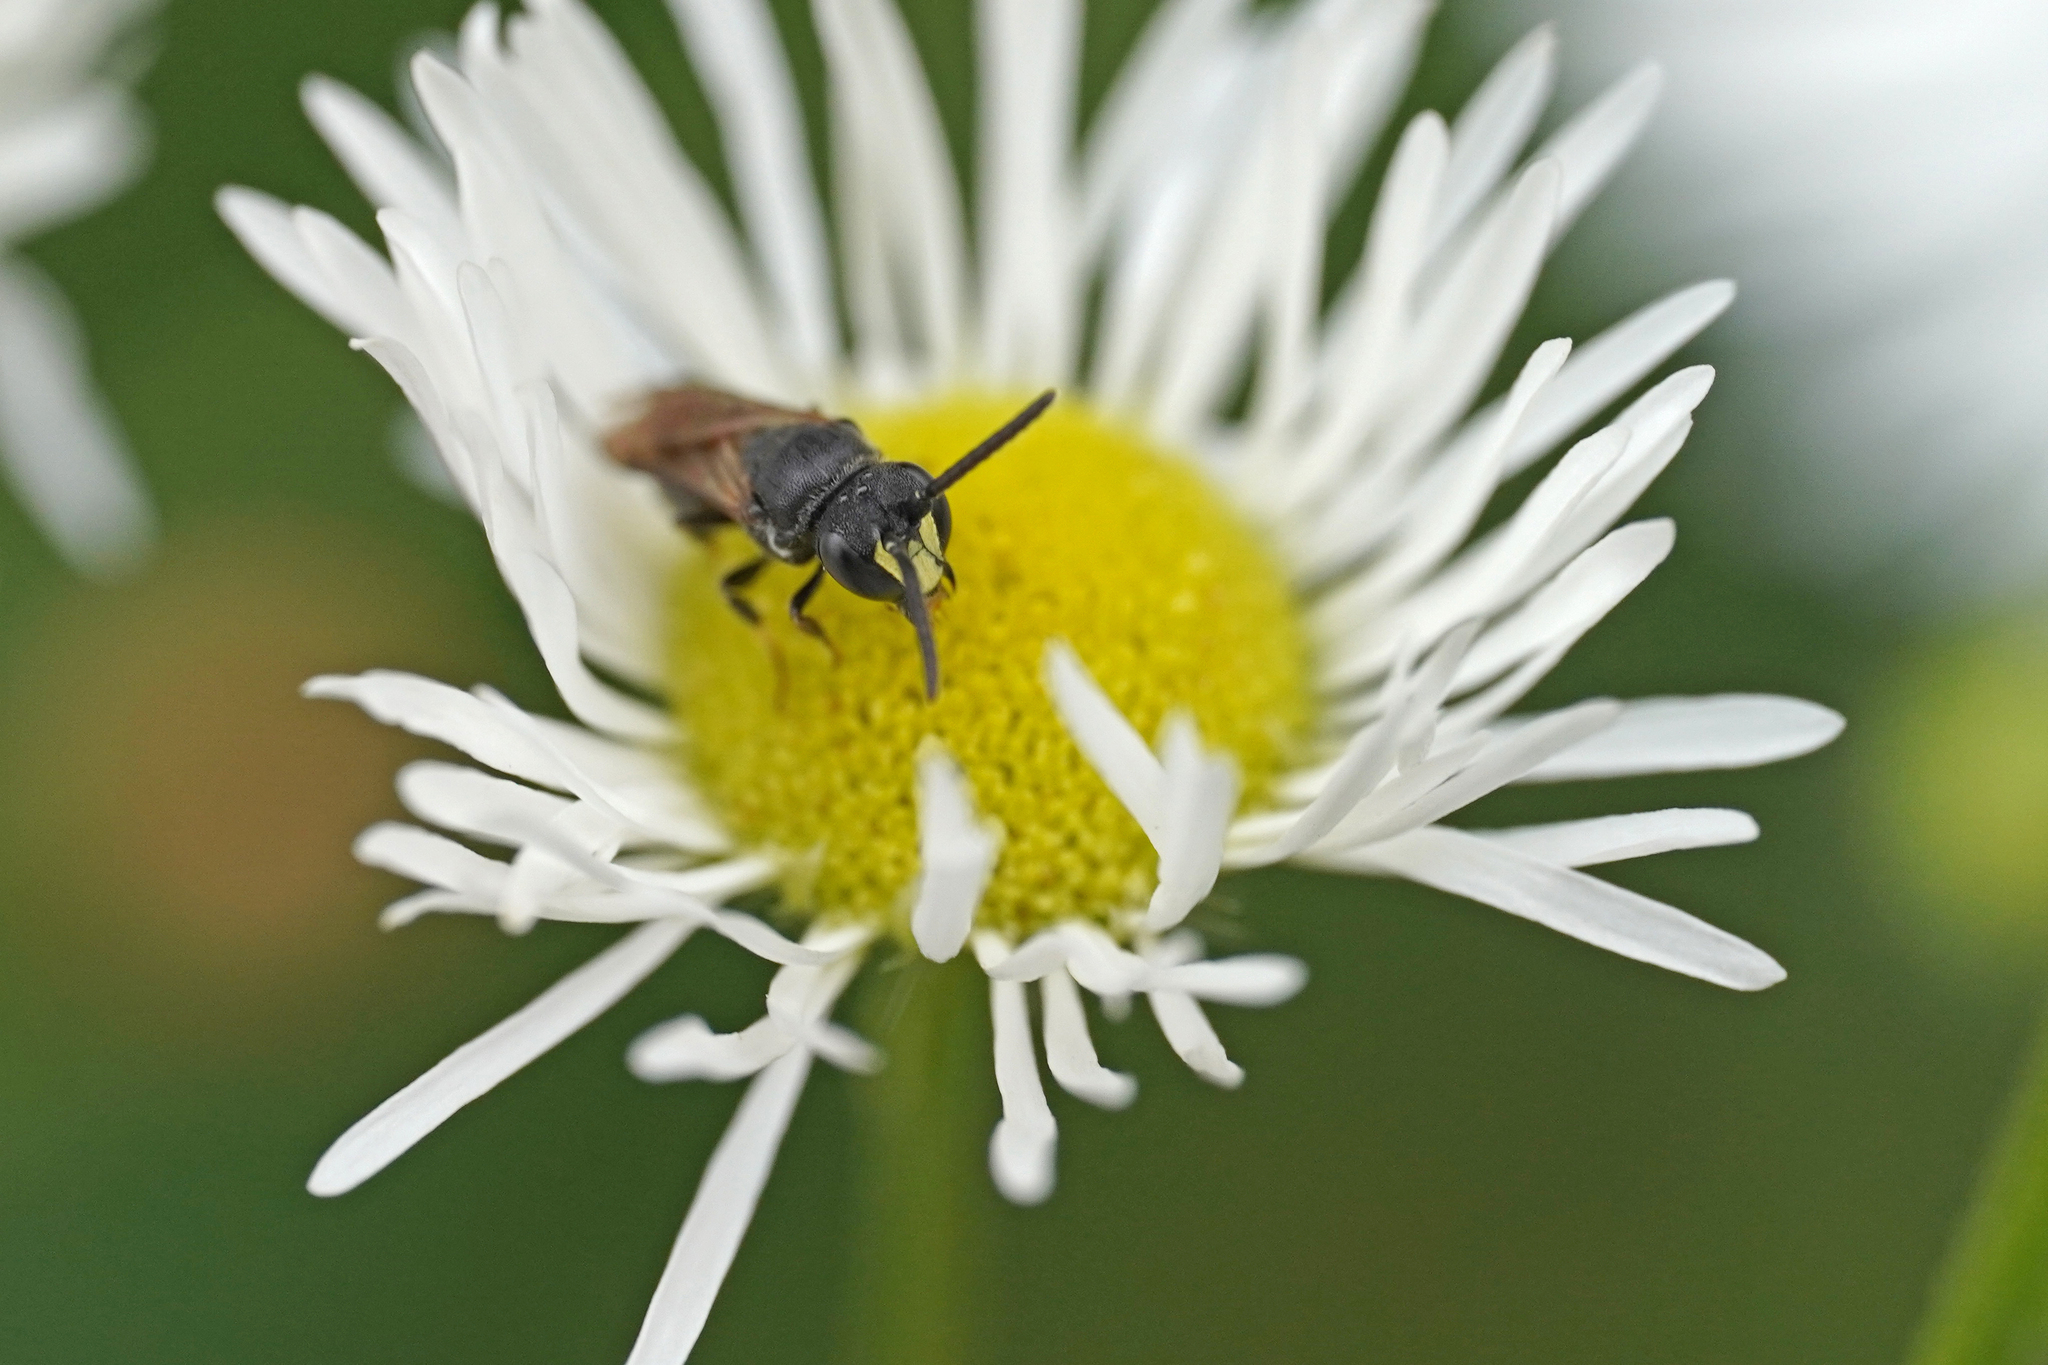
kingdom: Animalia
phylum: Arthropoda
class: Insecta
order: Hymenoptera
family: Colletidae
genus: Hylaeus
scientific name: Hylaeus communis
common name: Common yellow-face bee
